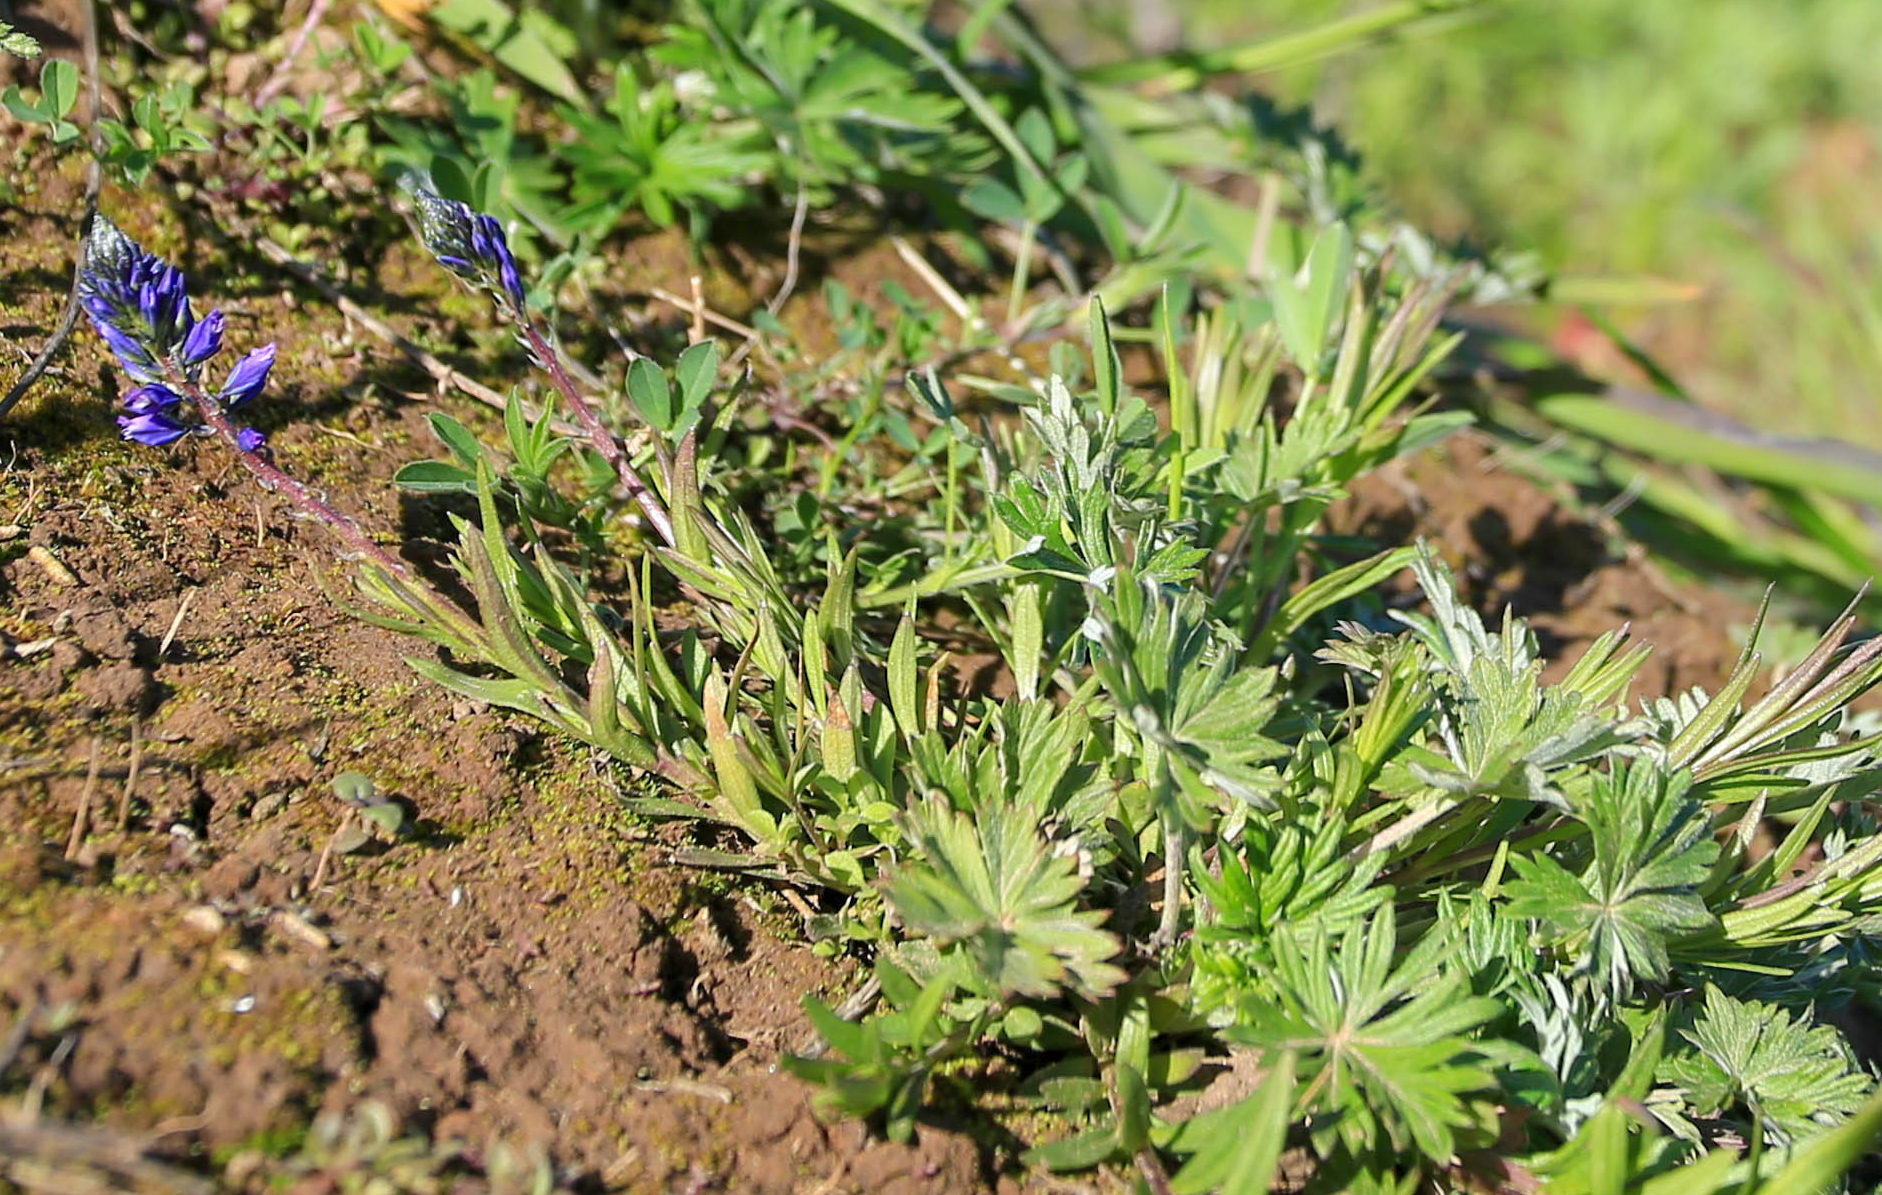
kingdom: Plantae
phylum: Tracheophyta
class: Magnoliopsida
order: Fabales
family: Polygalaceae
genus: Polygala
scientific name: Polygala comosa
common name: Tufted milkwort
